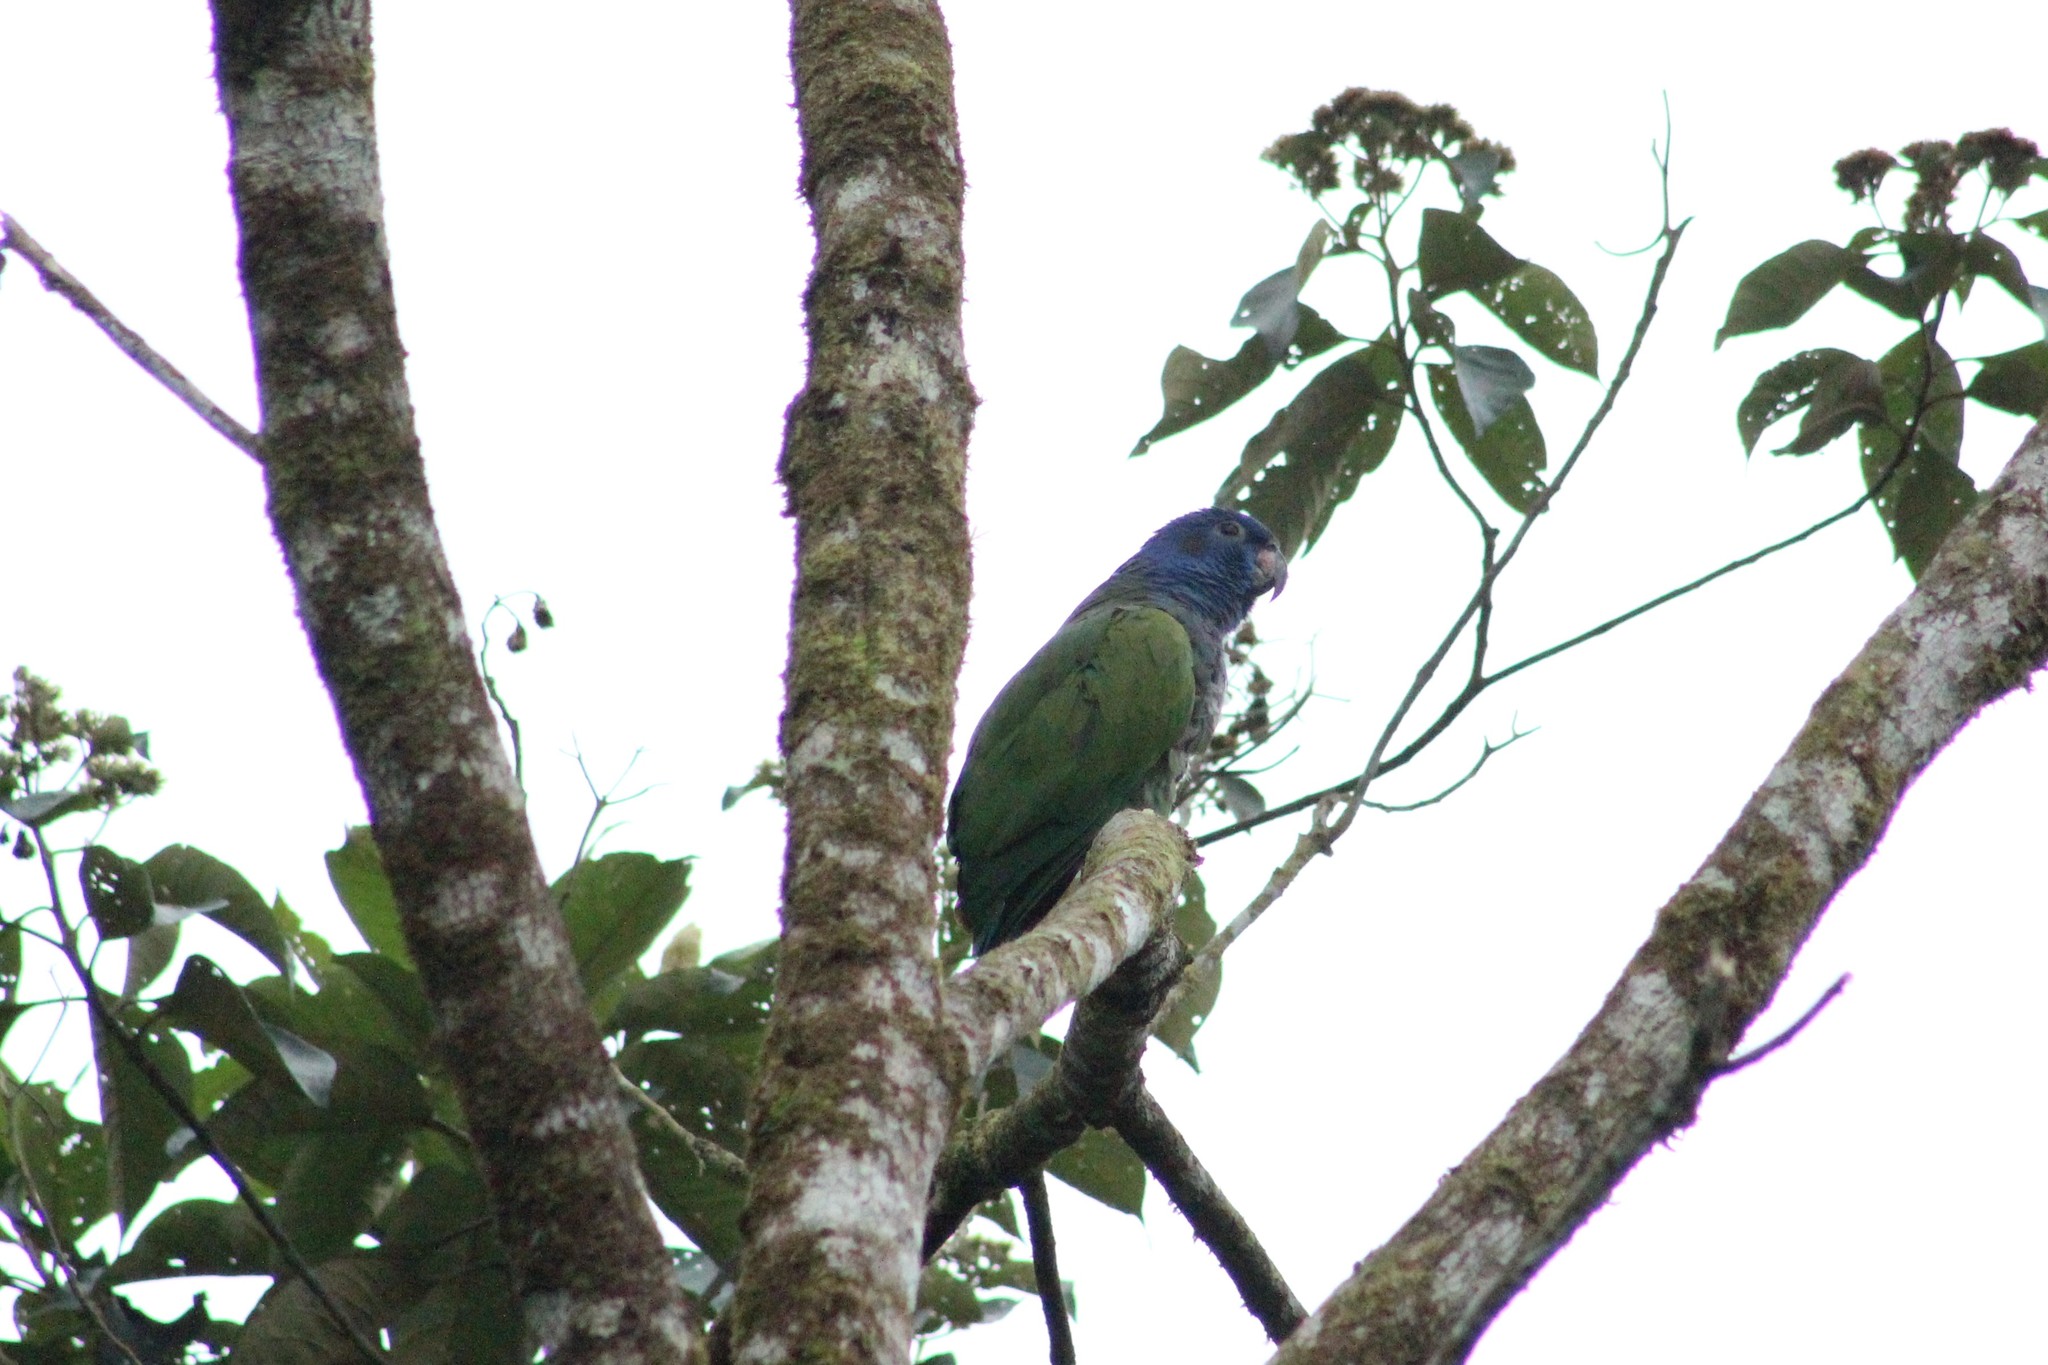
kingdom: Animalia
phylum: Chordata
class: Aves
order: Psittaciformes
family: Psittacidae
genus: Pionus
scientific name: Pionus menstruus
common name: Blue-headed parrot
